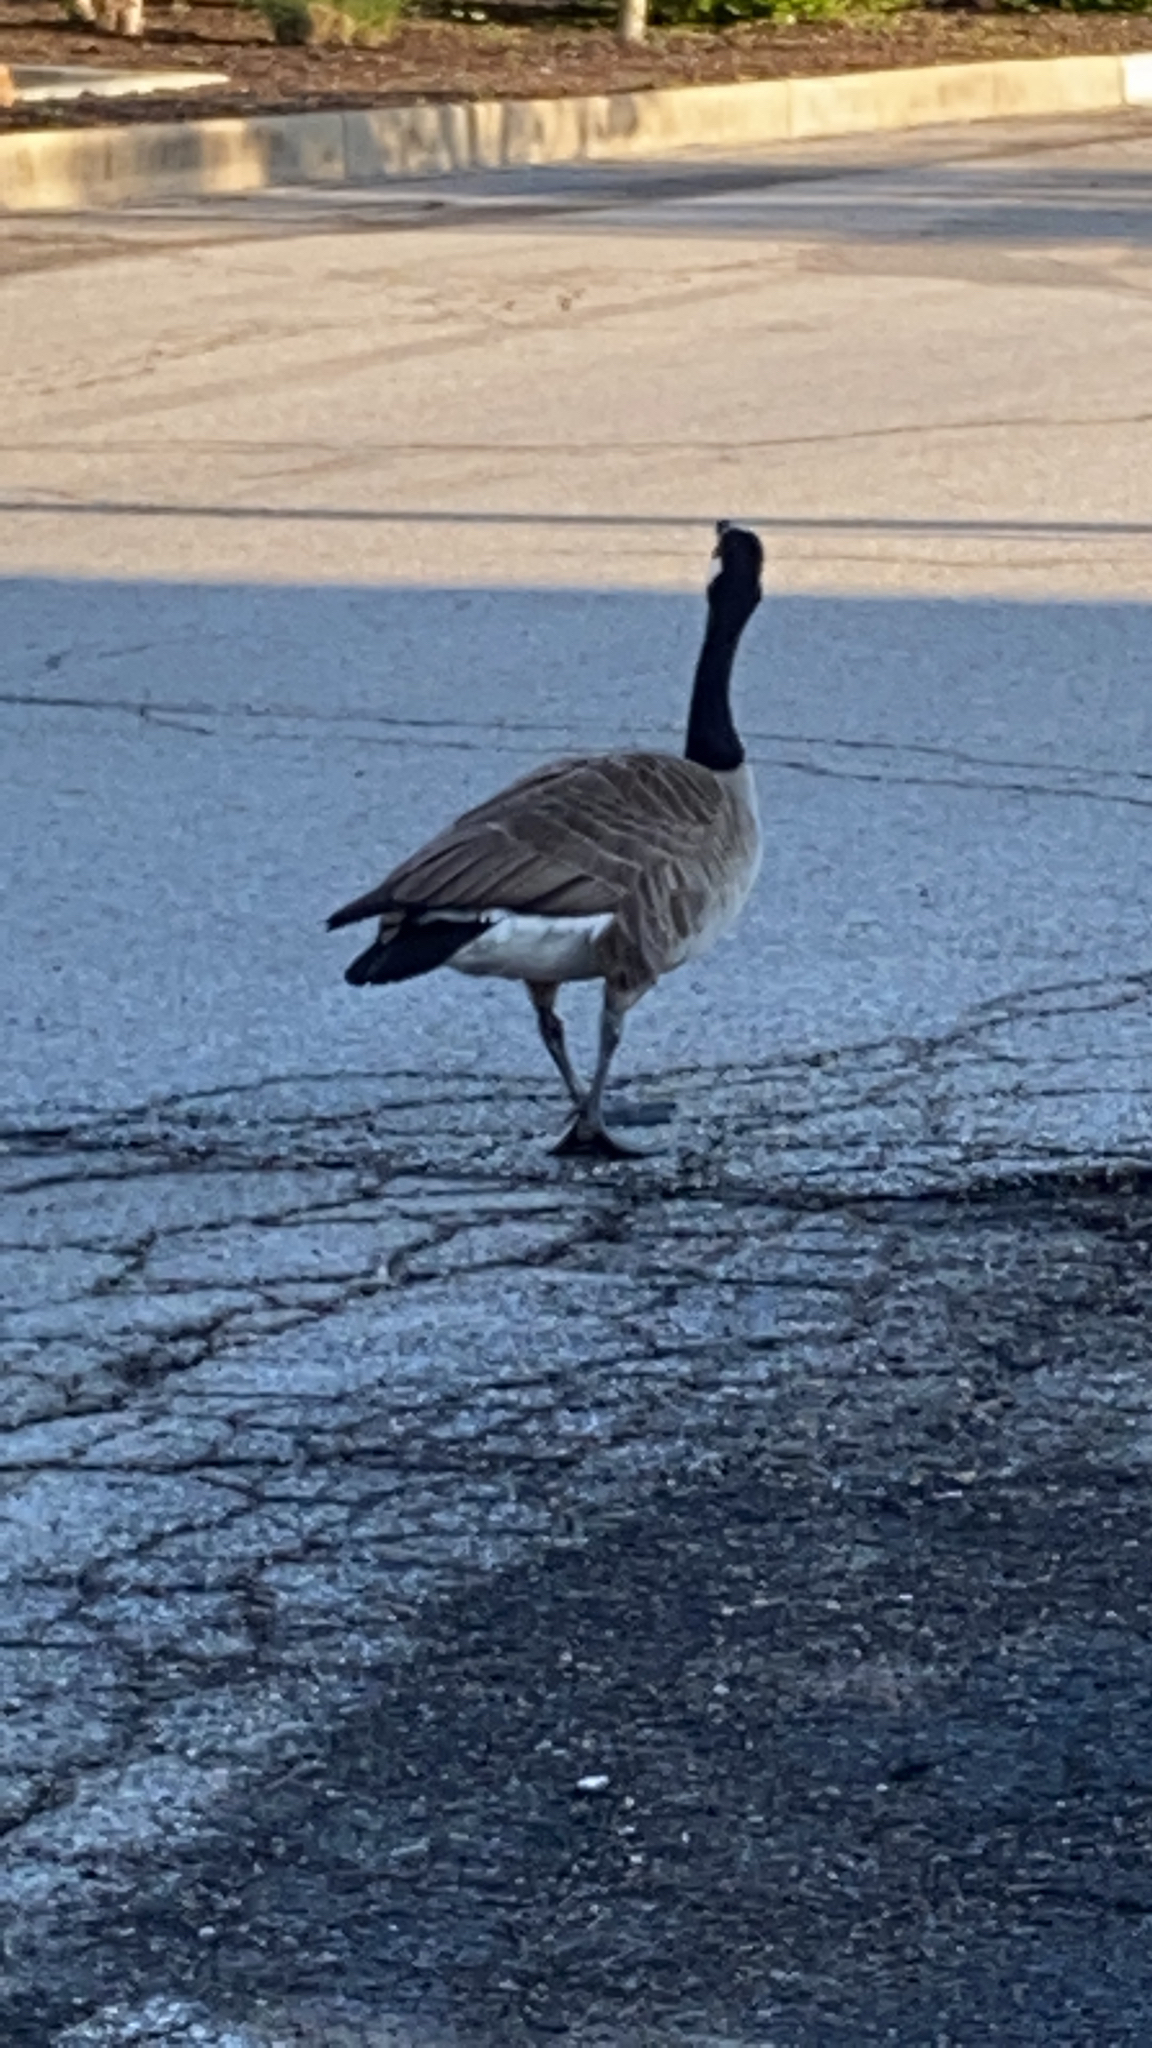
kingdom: Animalia
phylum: Chordata
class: Aves
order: Anseriformes
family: Anatidae
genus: Branta
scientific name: Branta canadensis
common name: Canada goose
